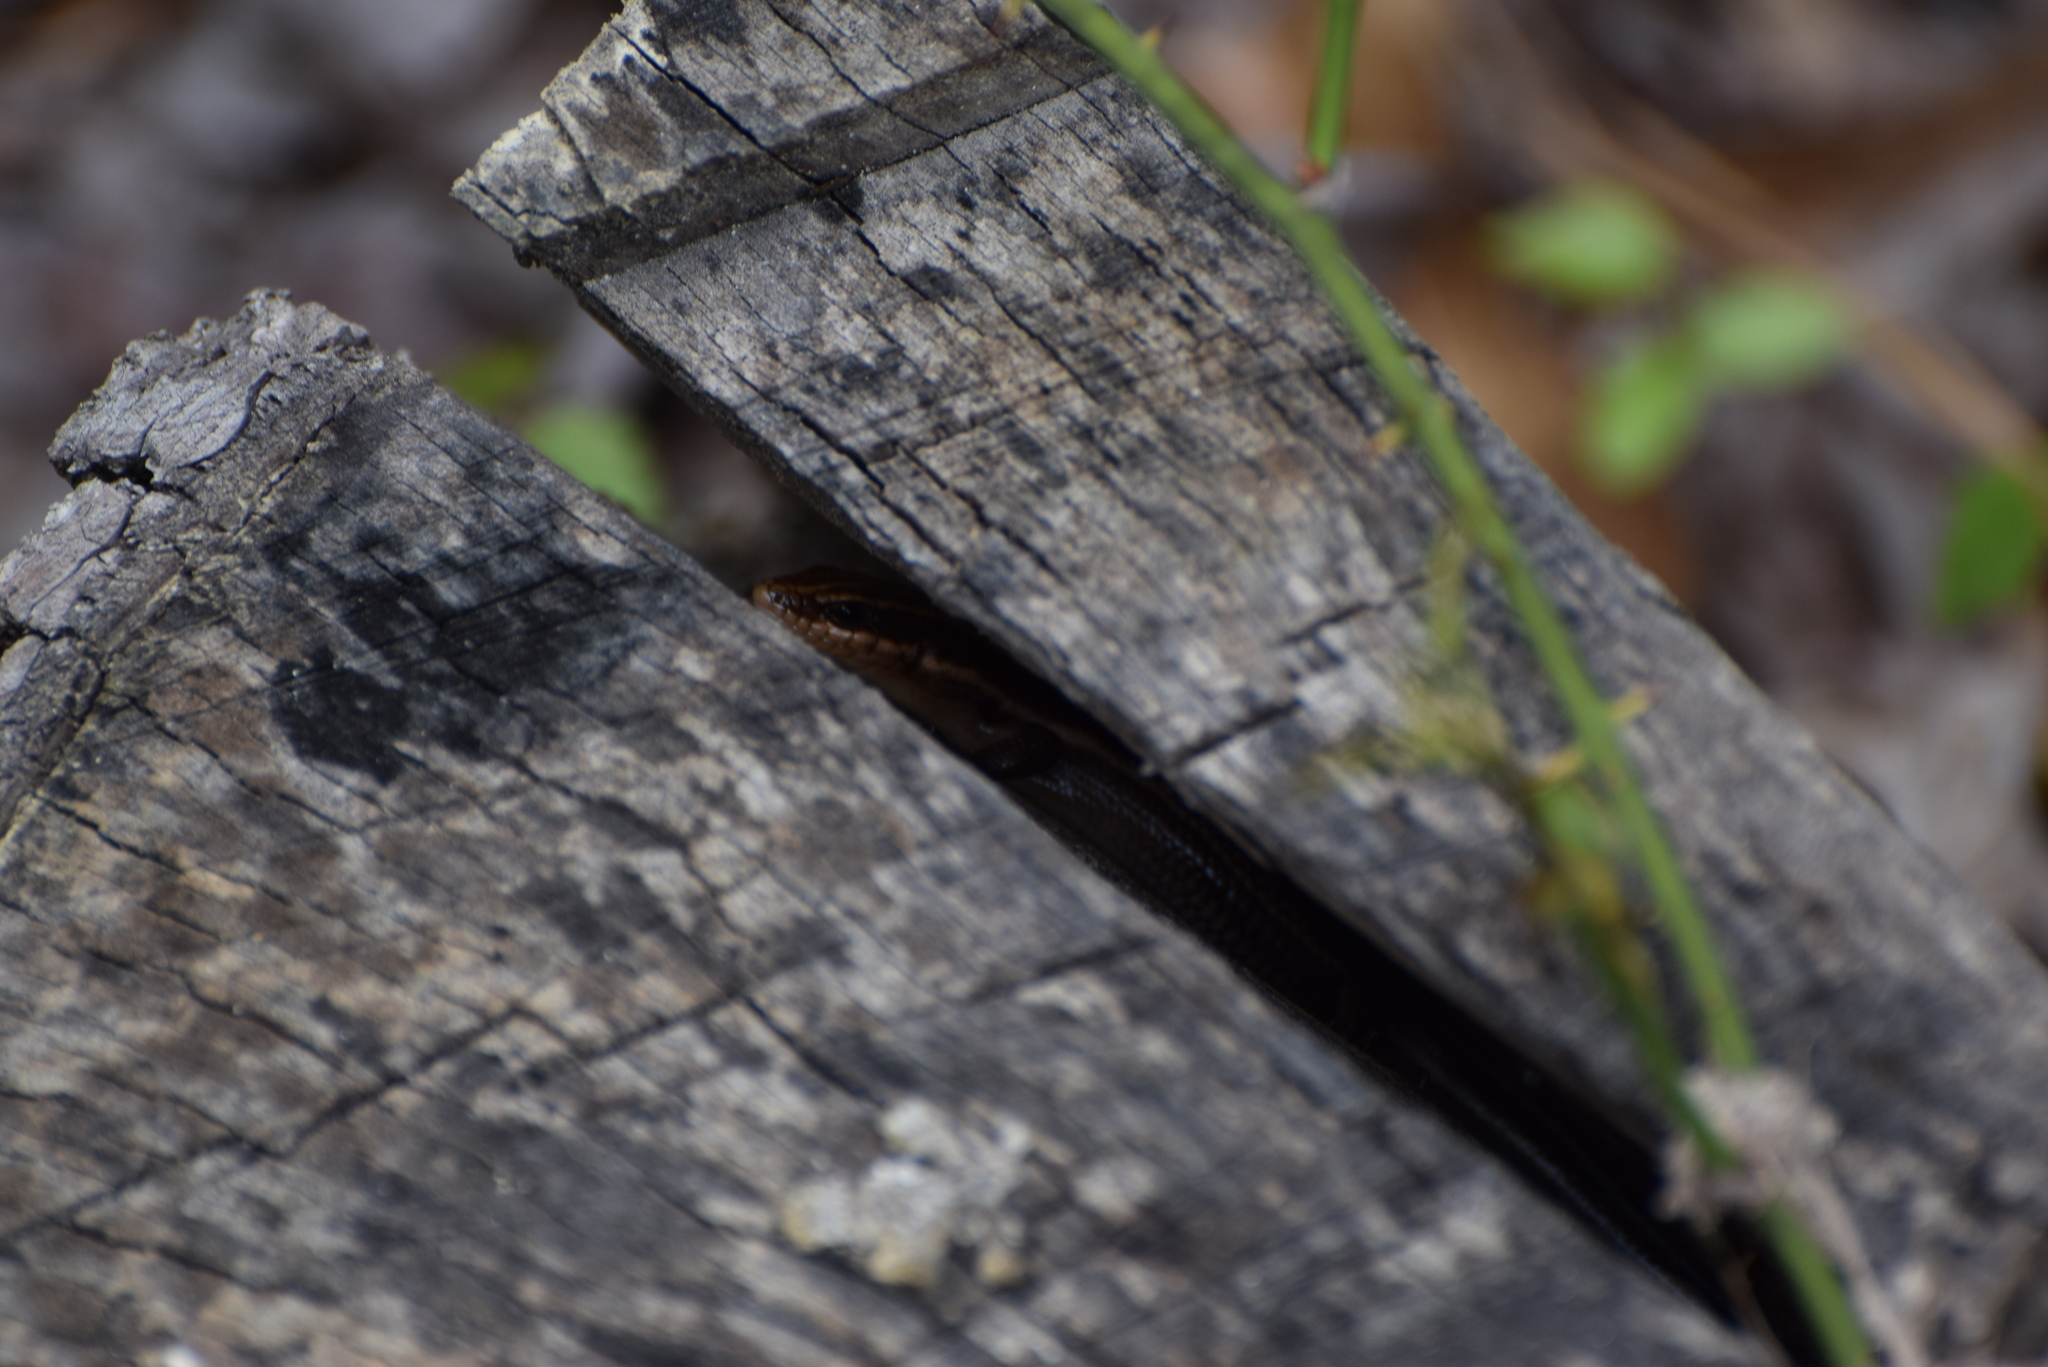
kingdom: Animalia
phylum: Chordata
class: Squamata
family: Scincidae
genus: Plestiodon
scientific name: Plestiodon fasciatus
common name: Five-lined skink
